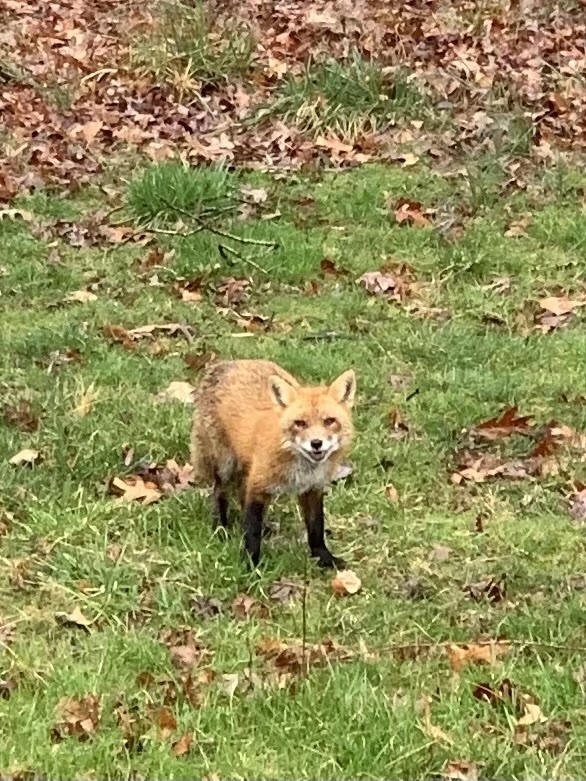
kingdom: Animalia
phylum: Chordata
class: Mammalia
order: Carnivora
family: Canidae
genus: Vulpes
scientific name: Vulpes vulpes
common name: Red fox
